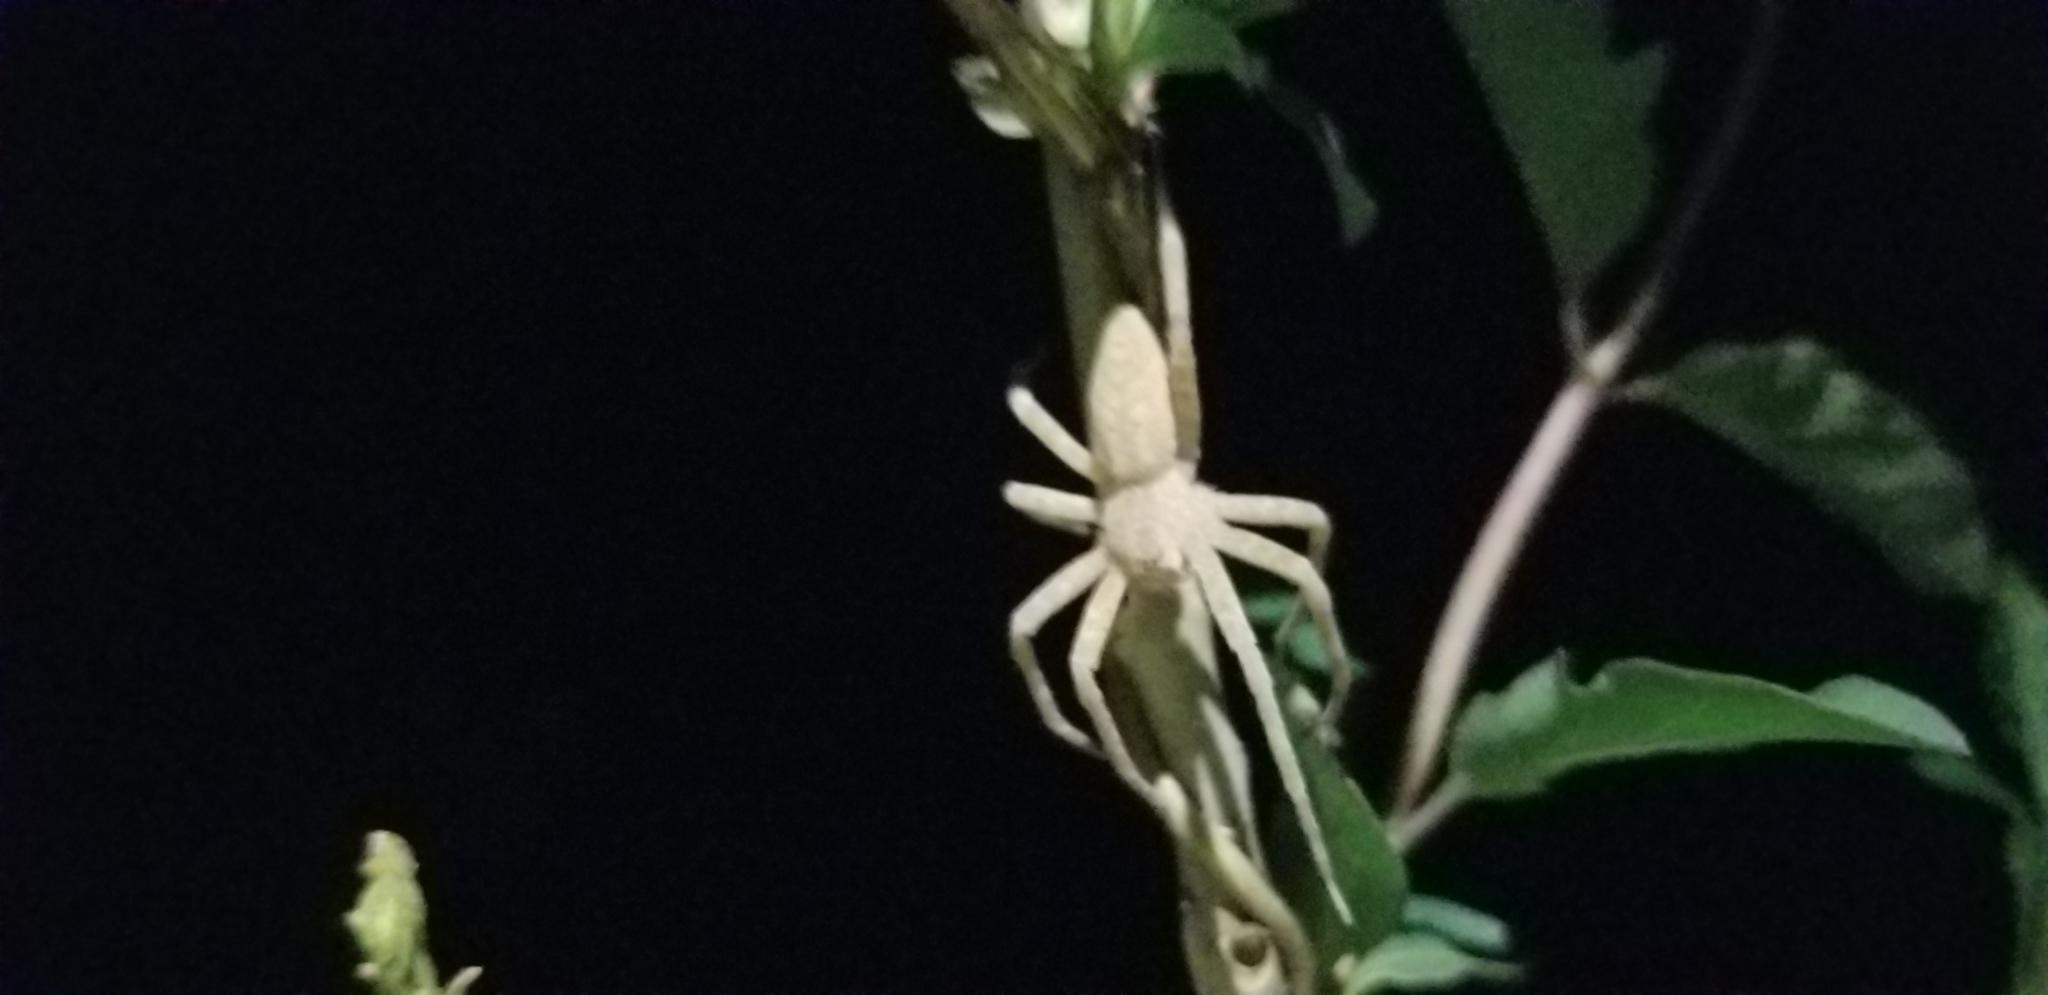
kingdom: Animalia
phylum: Arthropoda
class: Arachnida
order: Araneae
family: Pisauridae
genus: Pisaurina
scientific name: Pisaurina mira
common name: American nursery web spider
